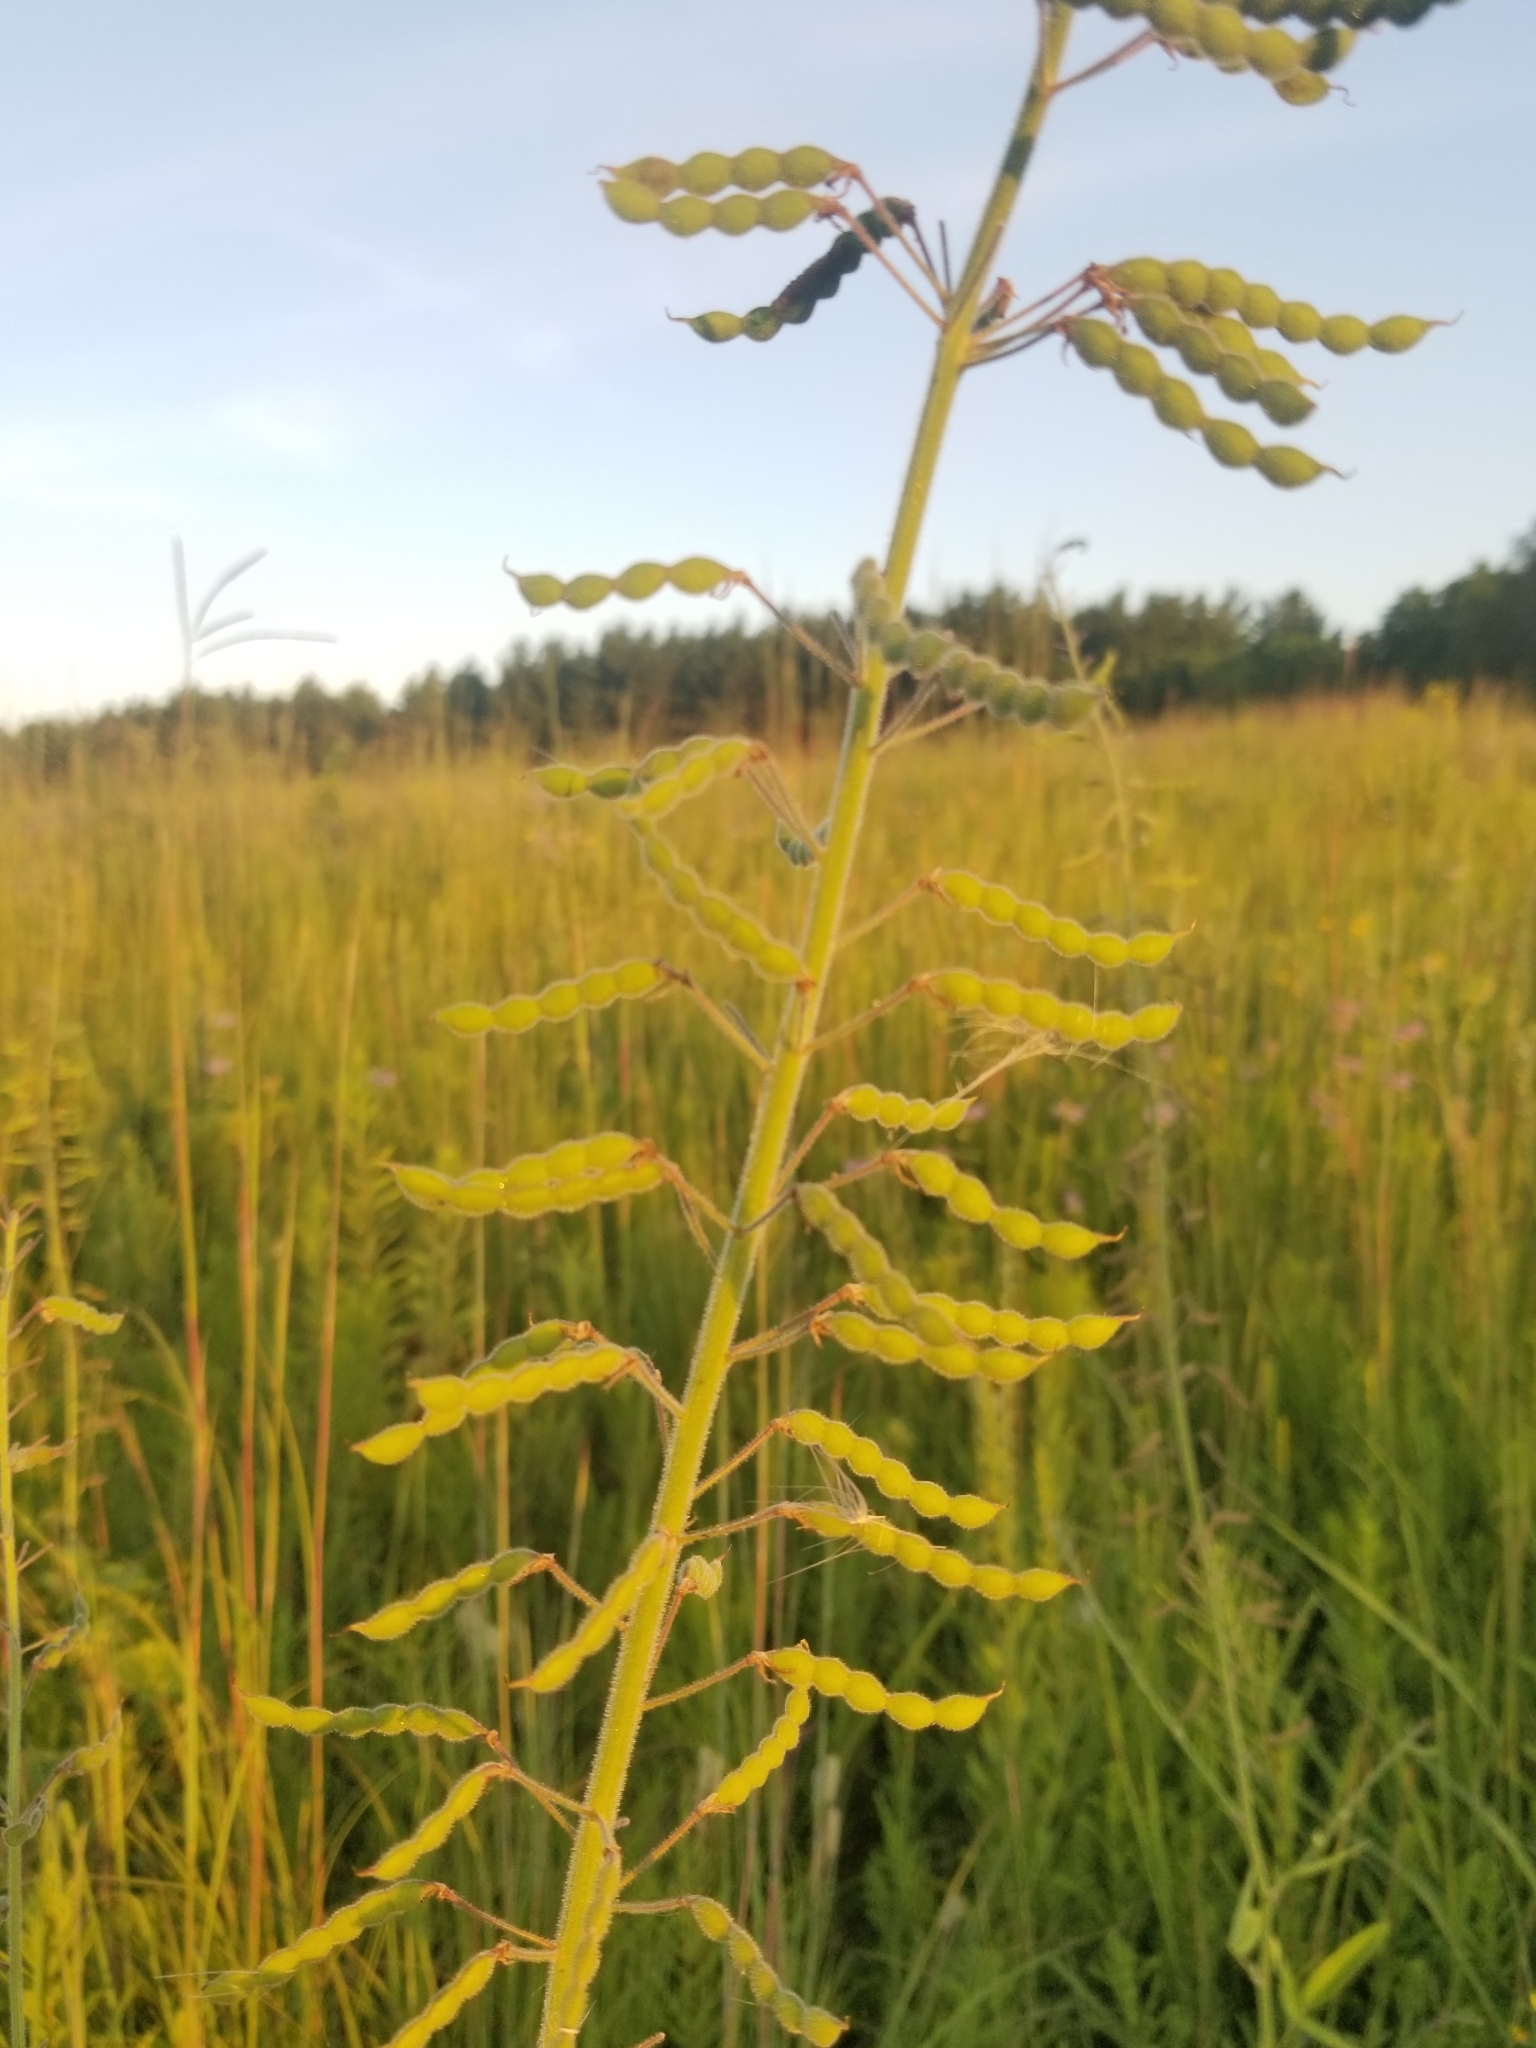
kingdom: Plantae
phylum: Tracheophyta
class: Magnoliopsida
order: Fabales
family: Fabaceae
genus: Desmodium
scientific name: Desmodium canadense
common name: Canada tick-trefoil
